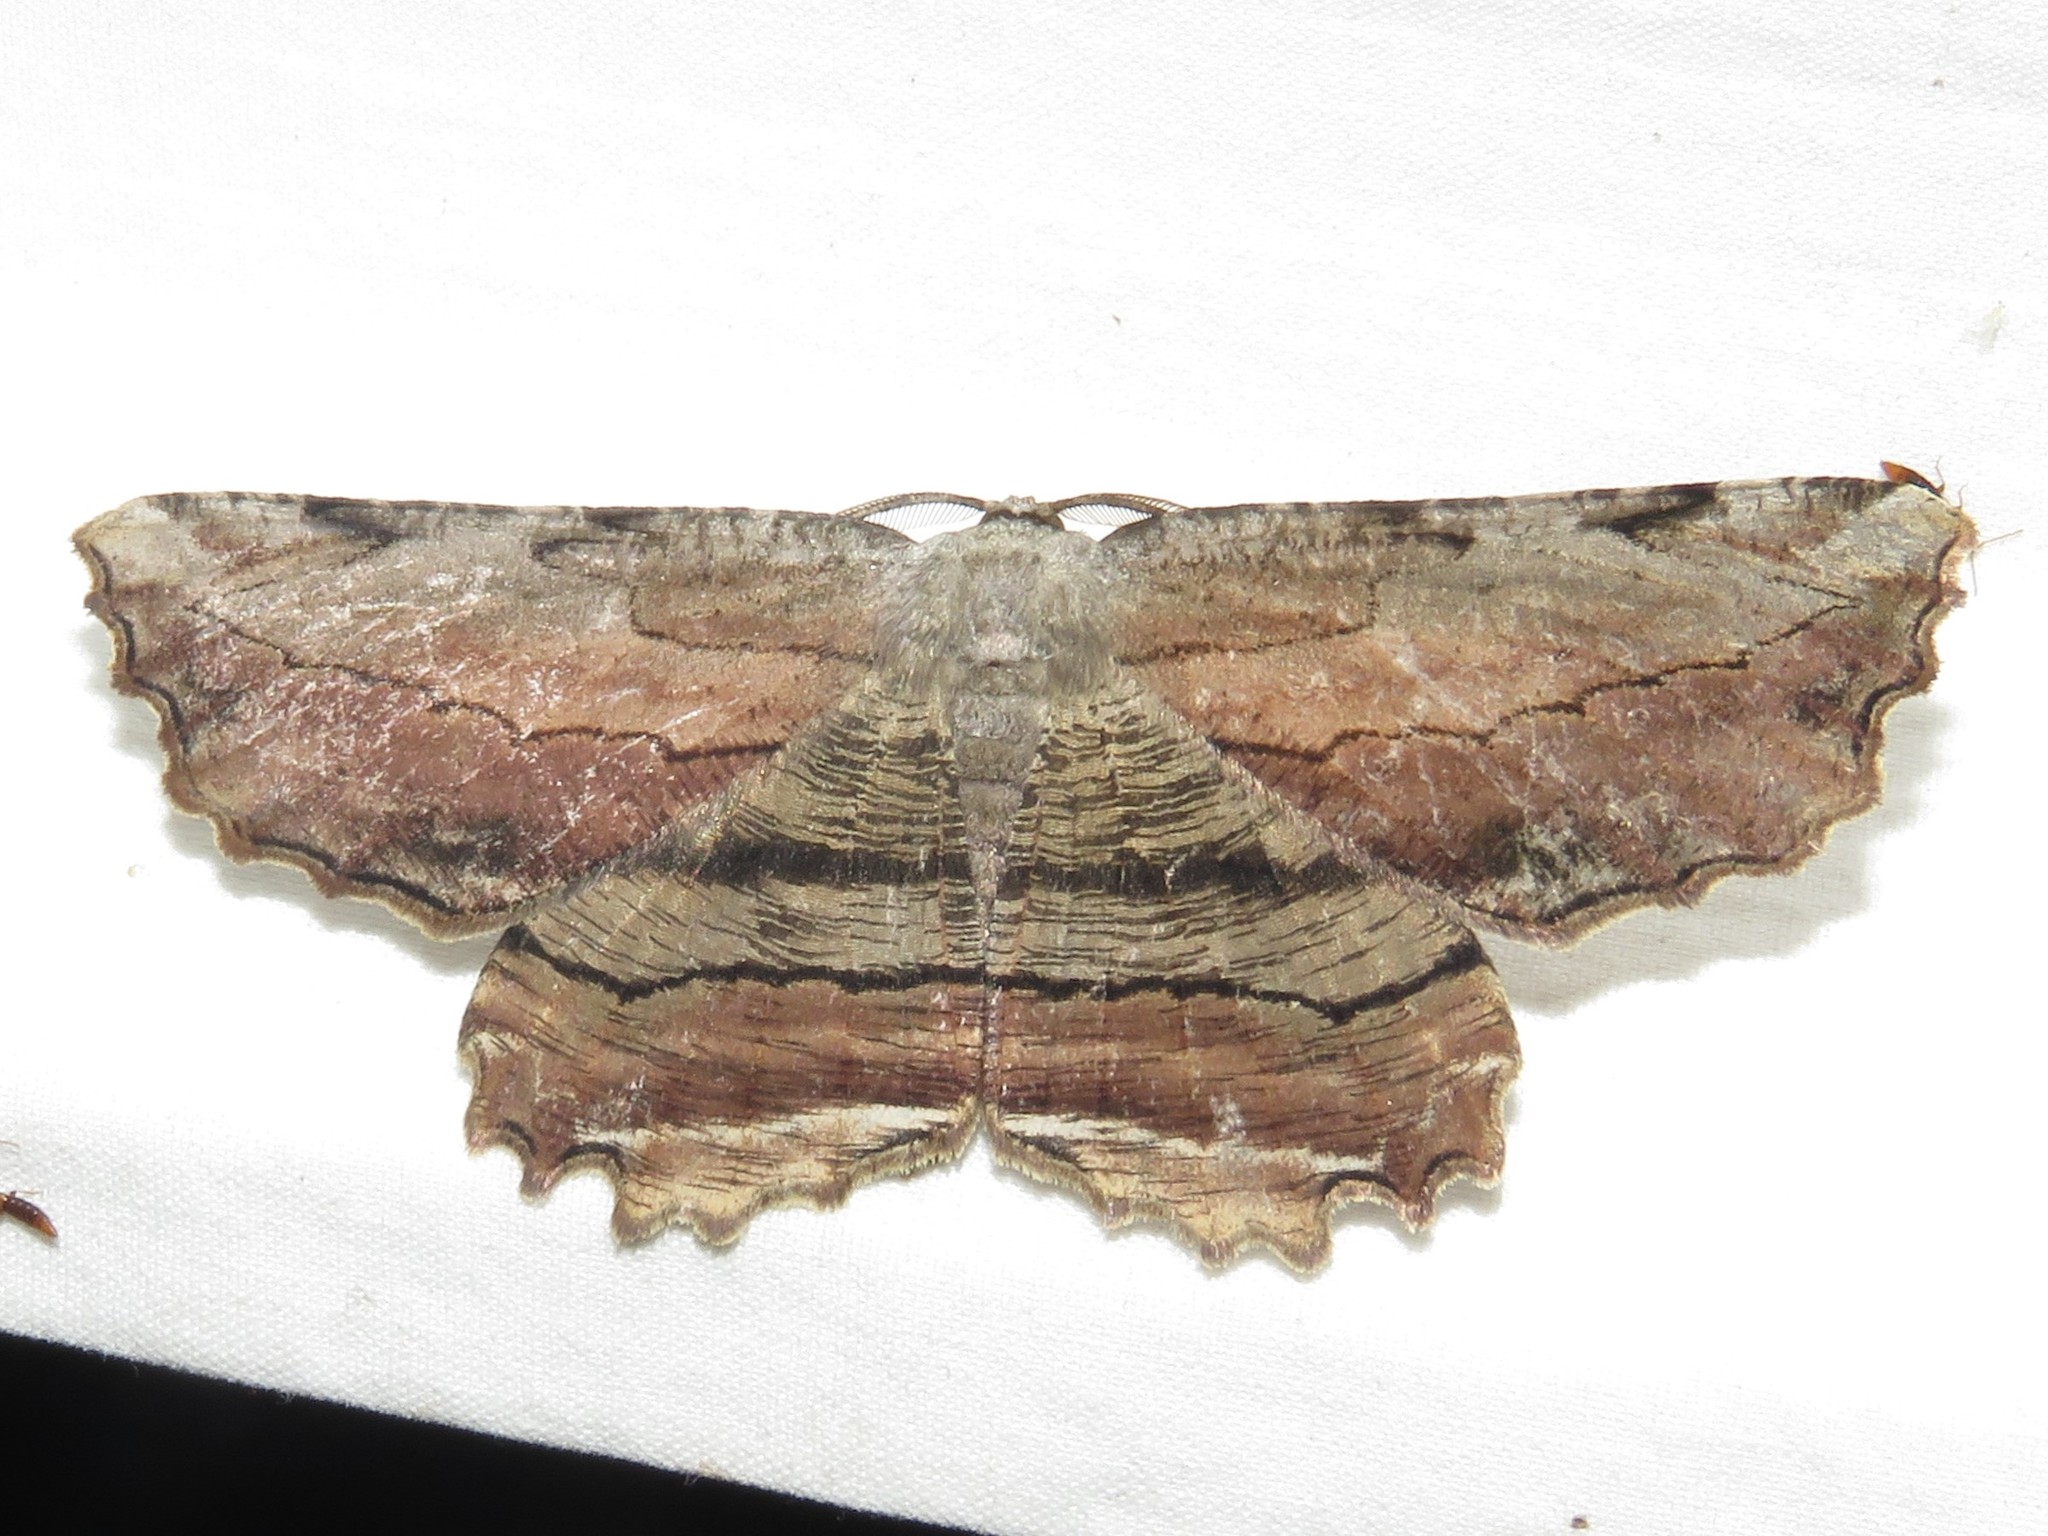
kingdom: Animalia
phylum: Arthropoda
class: Insecta
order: Lepidoptera
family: Geometridae
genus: Lytrosis
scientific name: Lytrosis unitaria
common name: Common lytrosis
